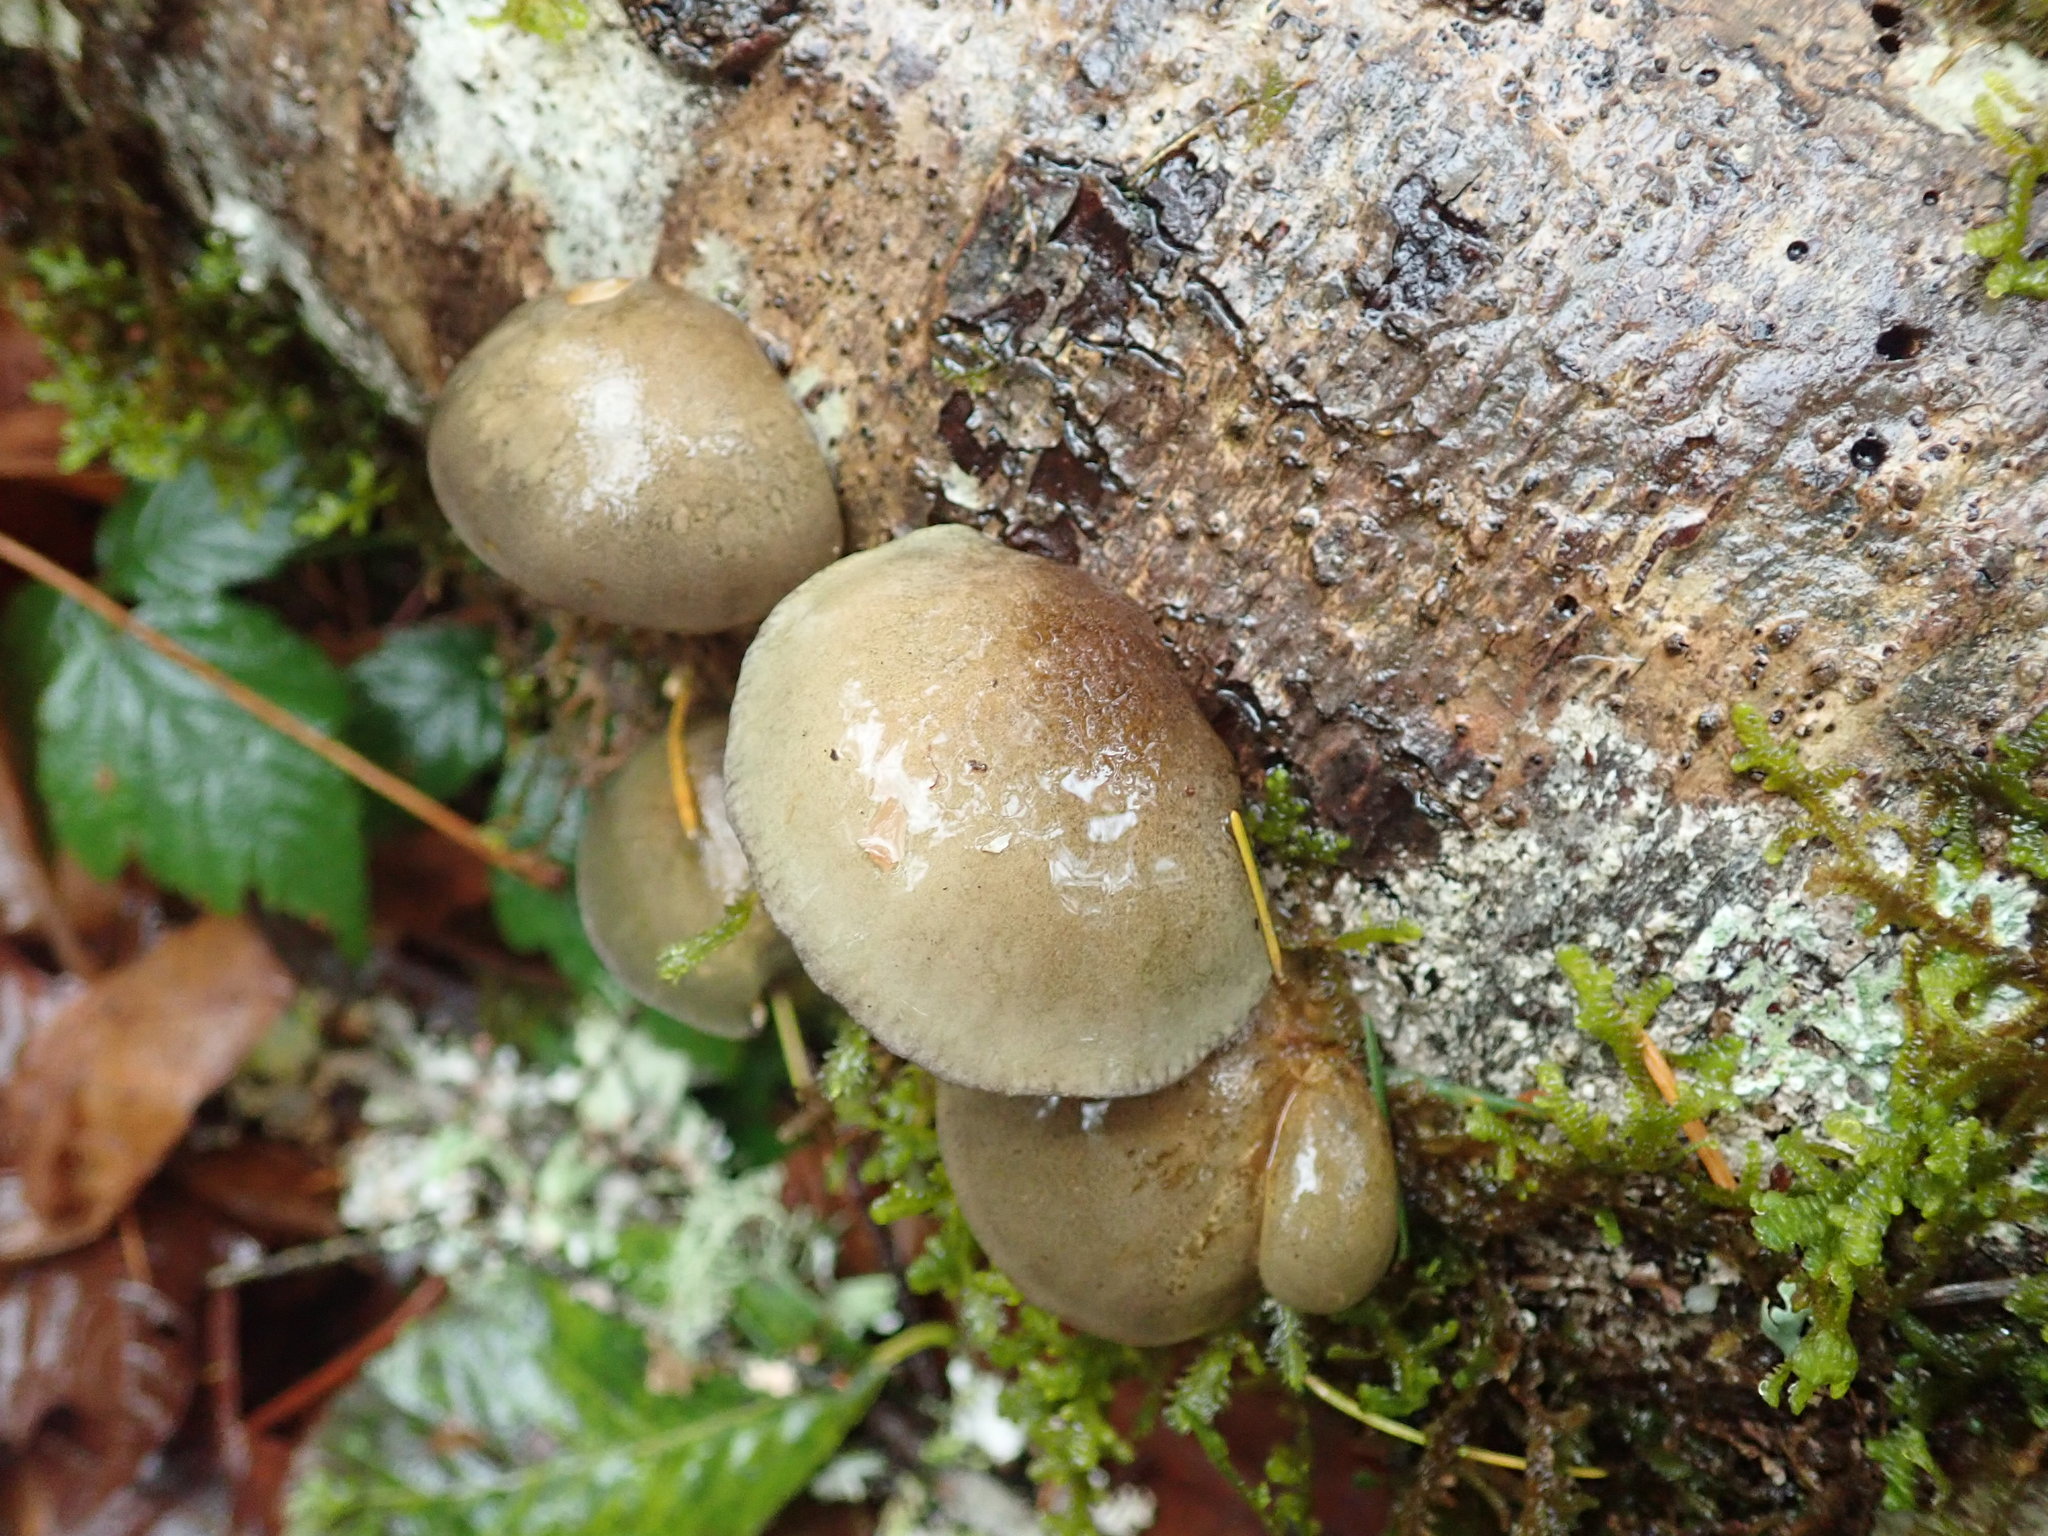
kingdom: Fungi
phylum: Basidiomycota
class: Agaricomycetes
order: Agaricales
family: Sarcomyxaceae
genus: Sarcomyxa
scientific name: Sarcomyxa serotina
